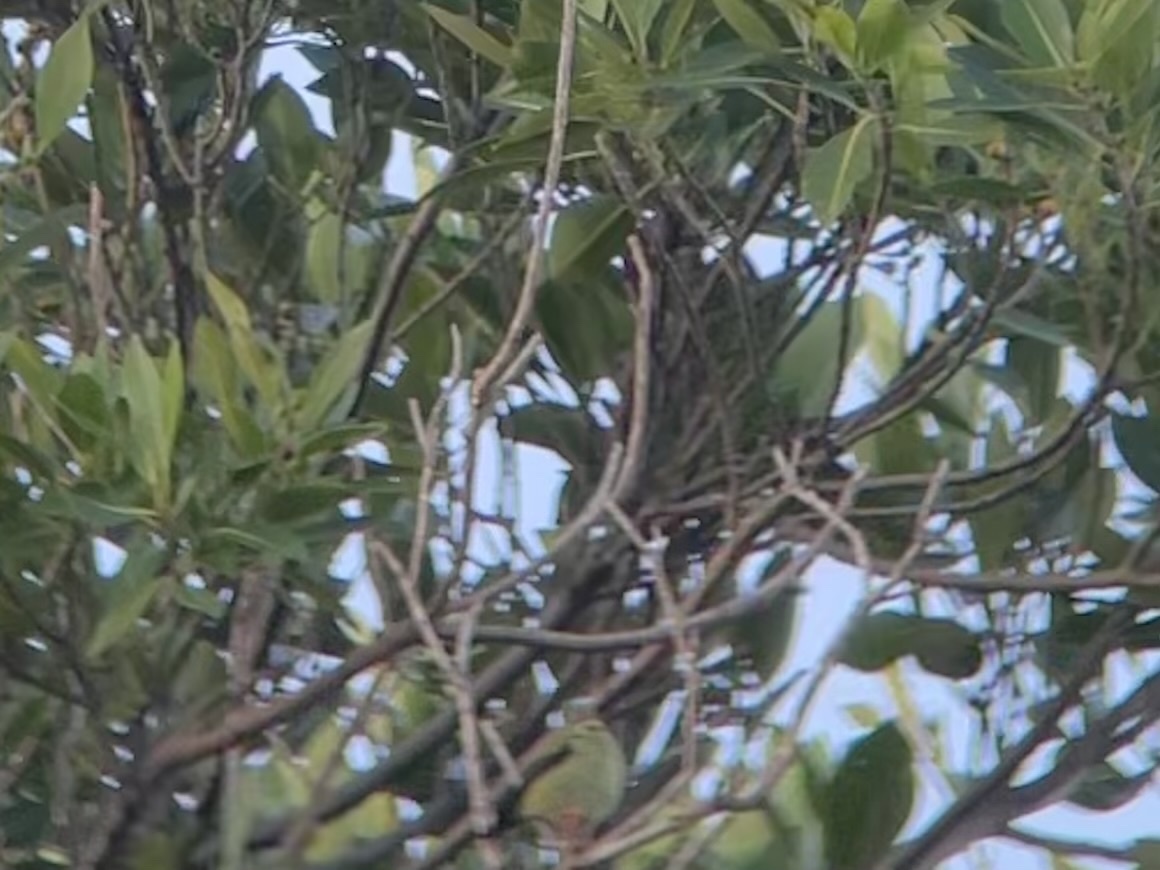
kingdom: Animalia
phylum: Chordata
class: Aves
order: Passeriformes
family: Thraupidae
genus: Cyanerpes
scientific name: Cyanerpes cyaneus
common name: Red-legged honeycreeper
